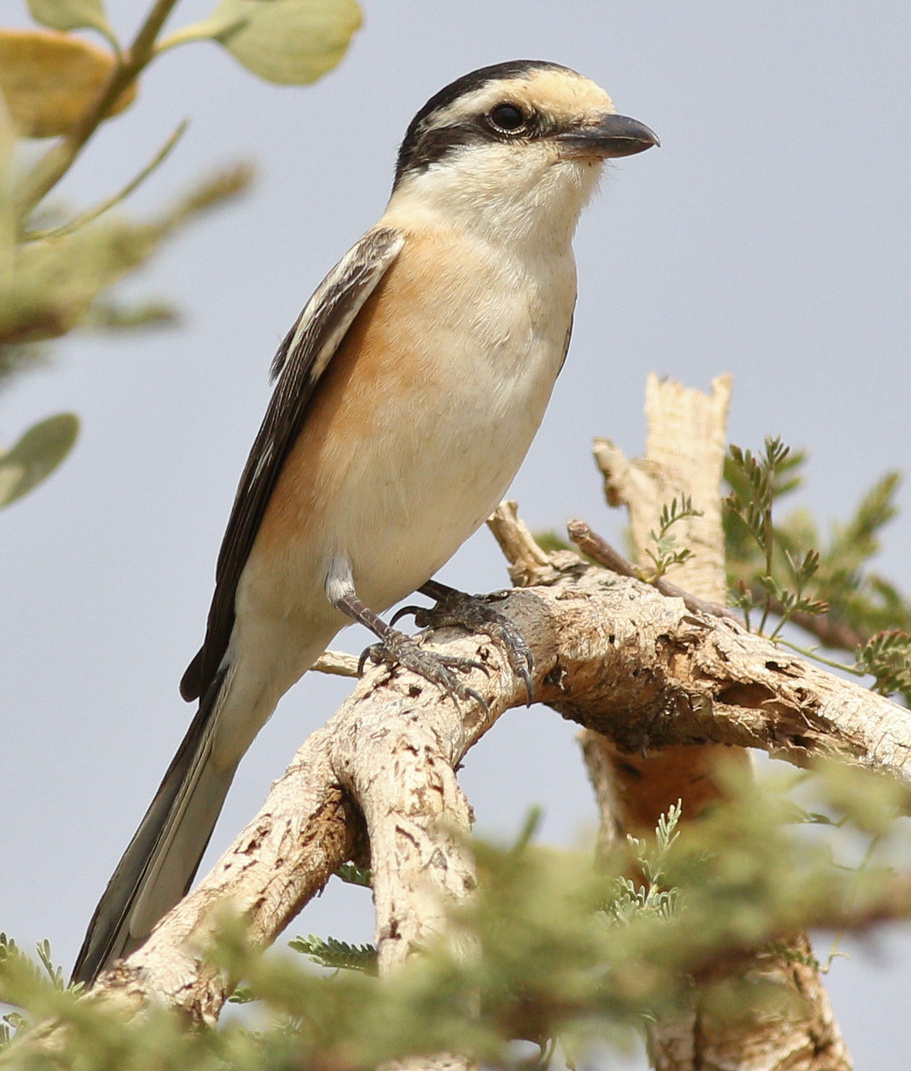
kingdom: Animalia
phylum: Chordata
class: Aves
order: Passeriformes
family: Laniidae
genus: Lanius
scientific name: Lanius nubicus
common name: Masked shrike
